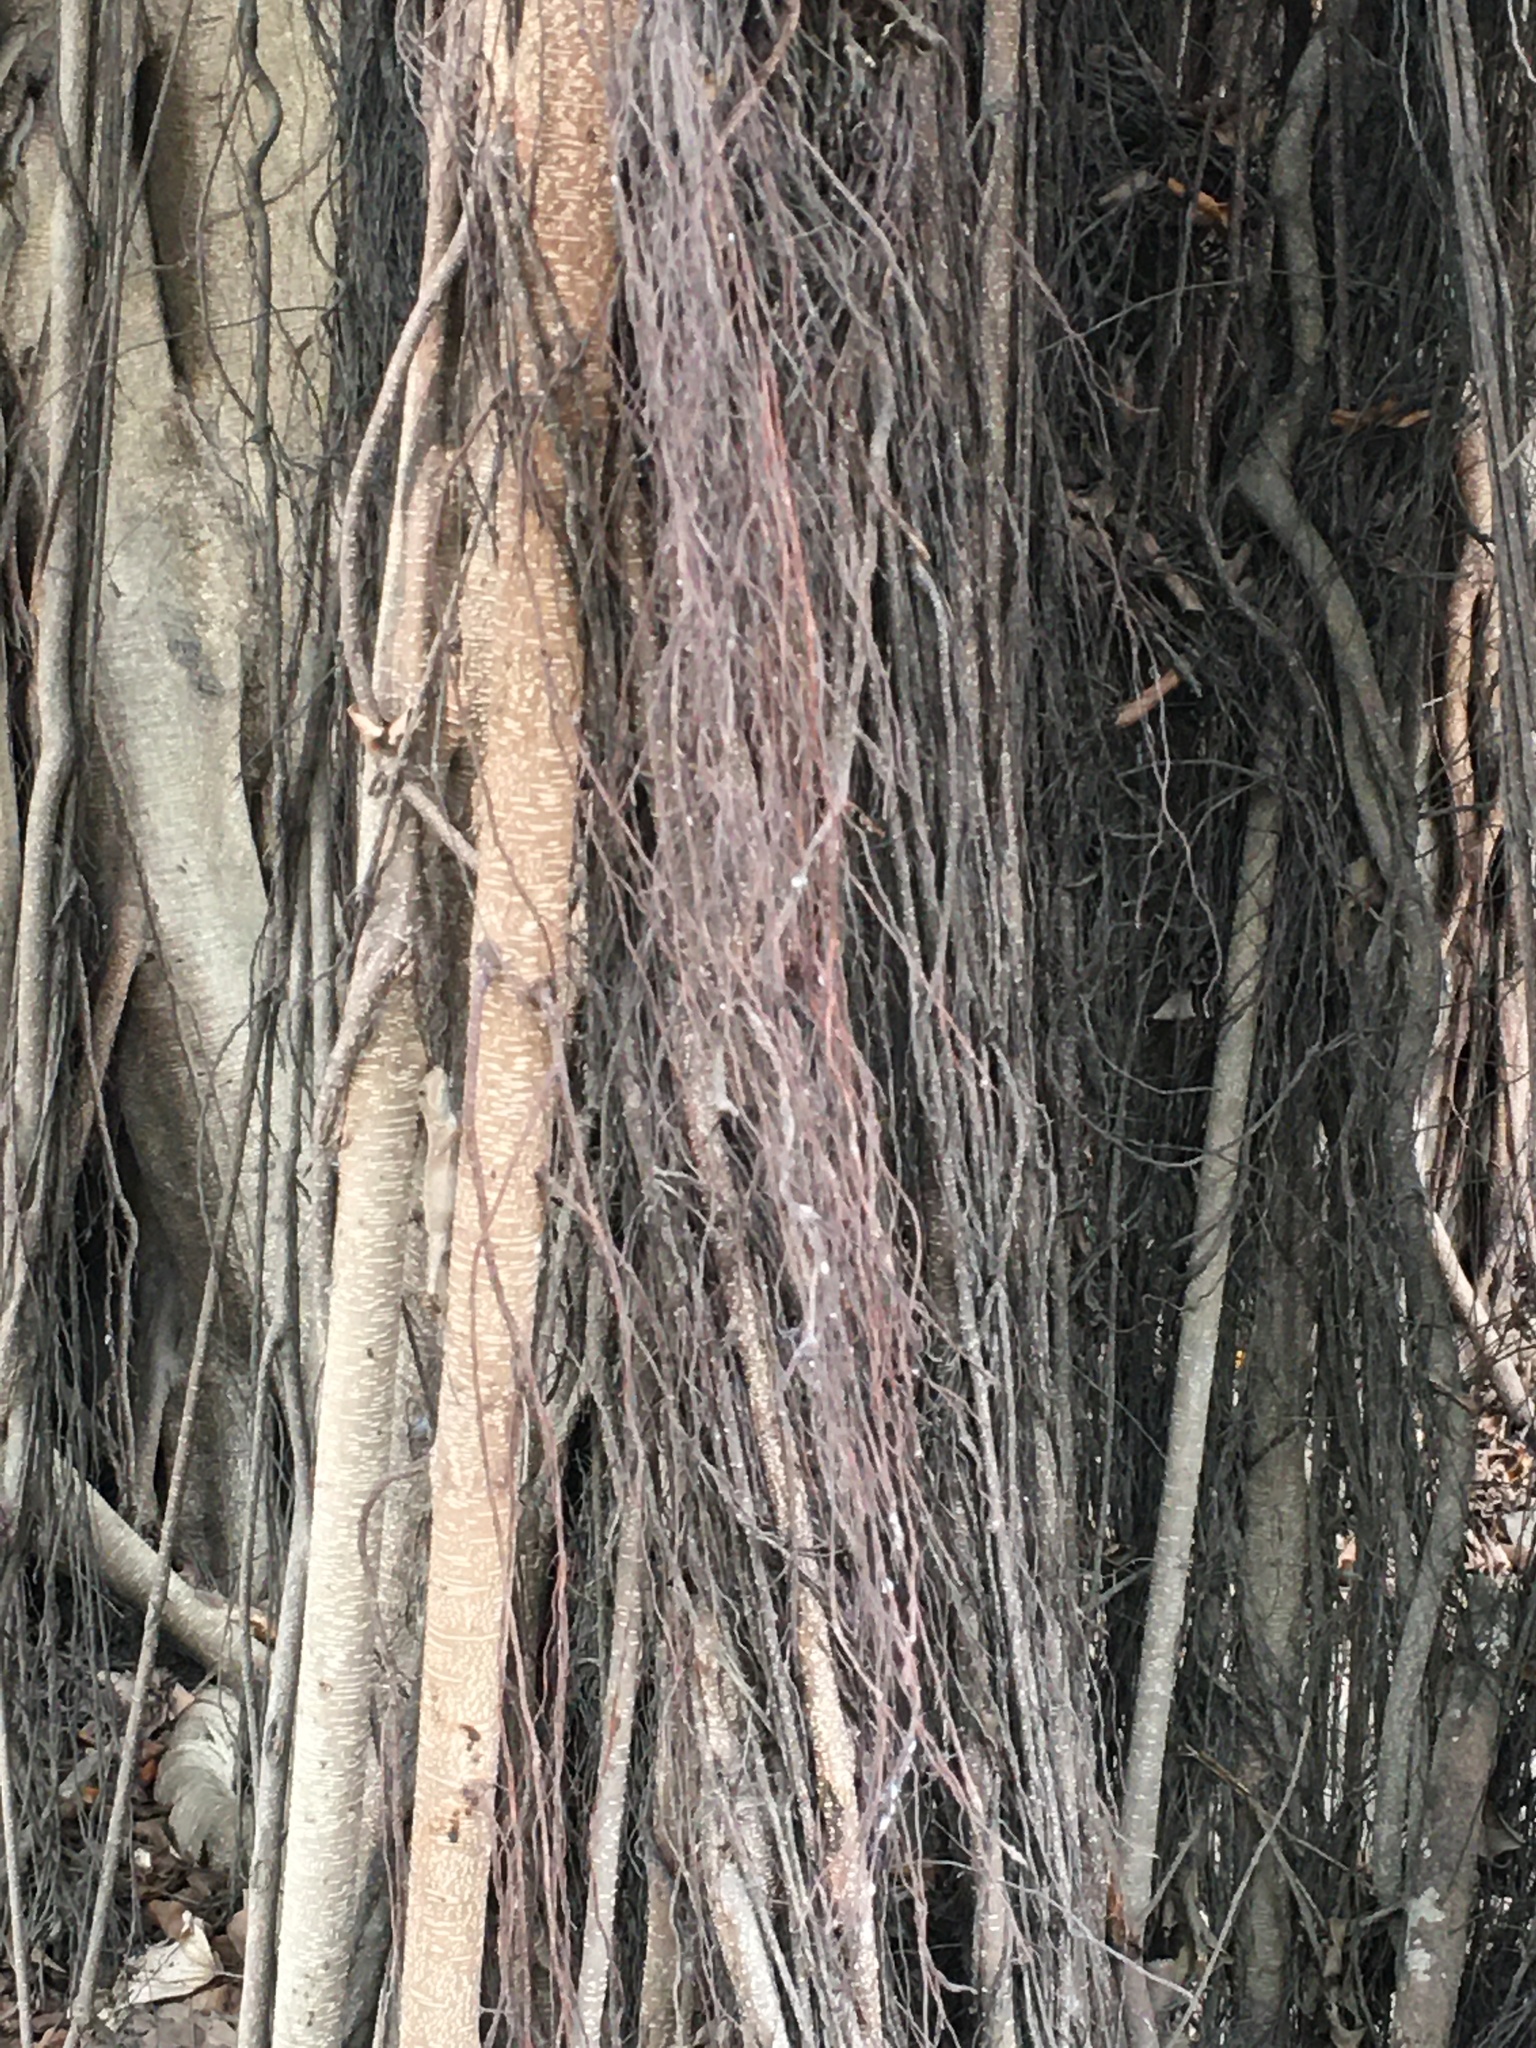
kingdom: Animalia
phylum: Chordata
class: Squamata
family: Agamidae
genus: Diploderma
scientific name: Diploderma swinhonis
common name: Taiwan japalure
